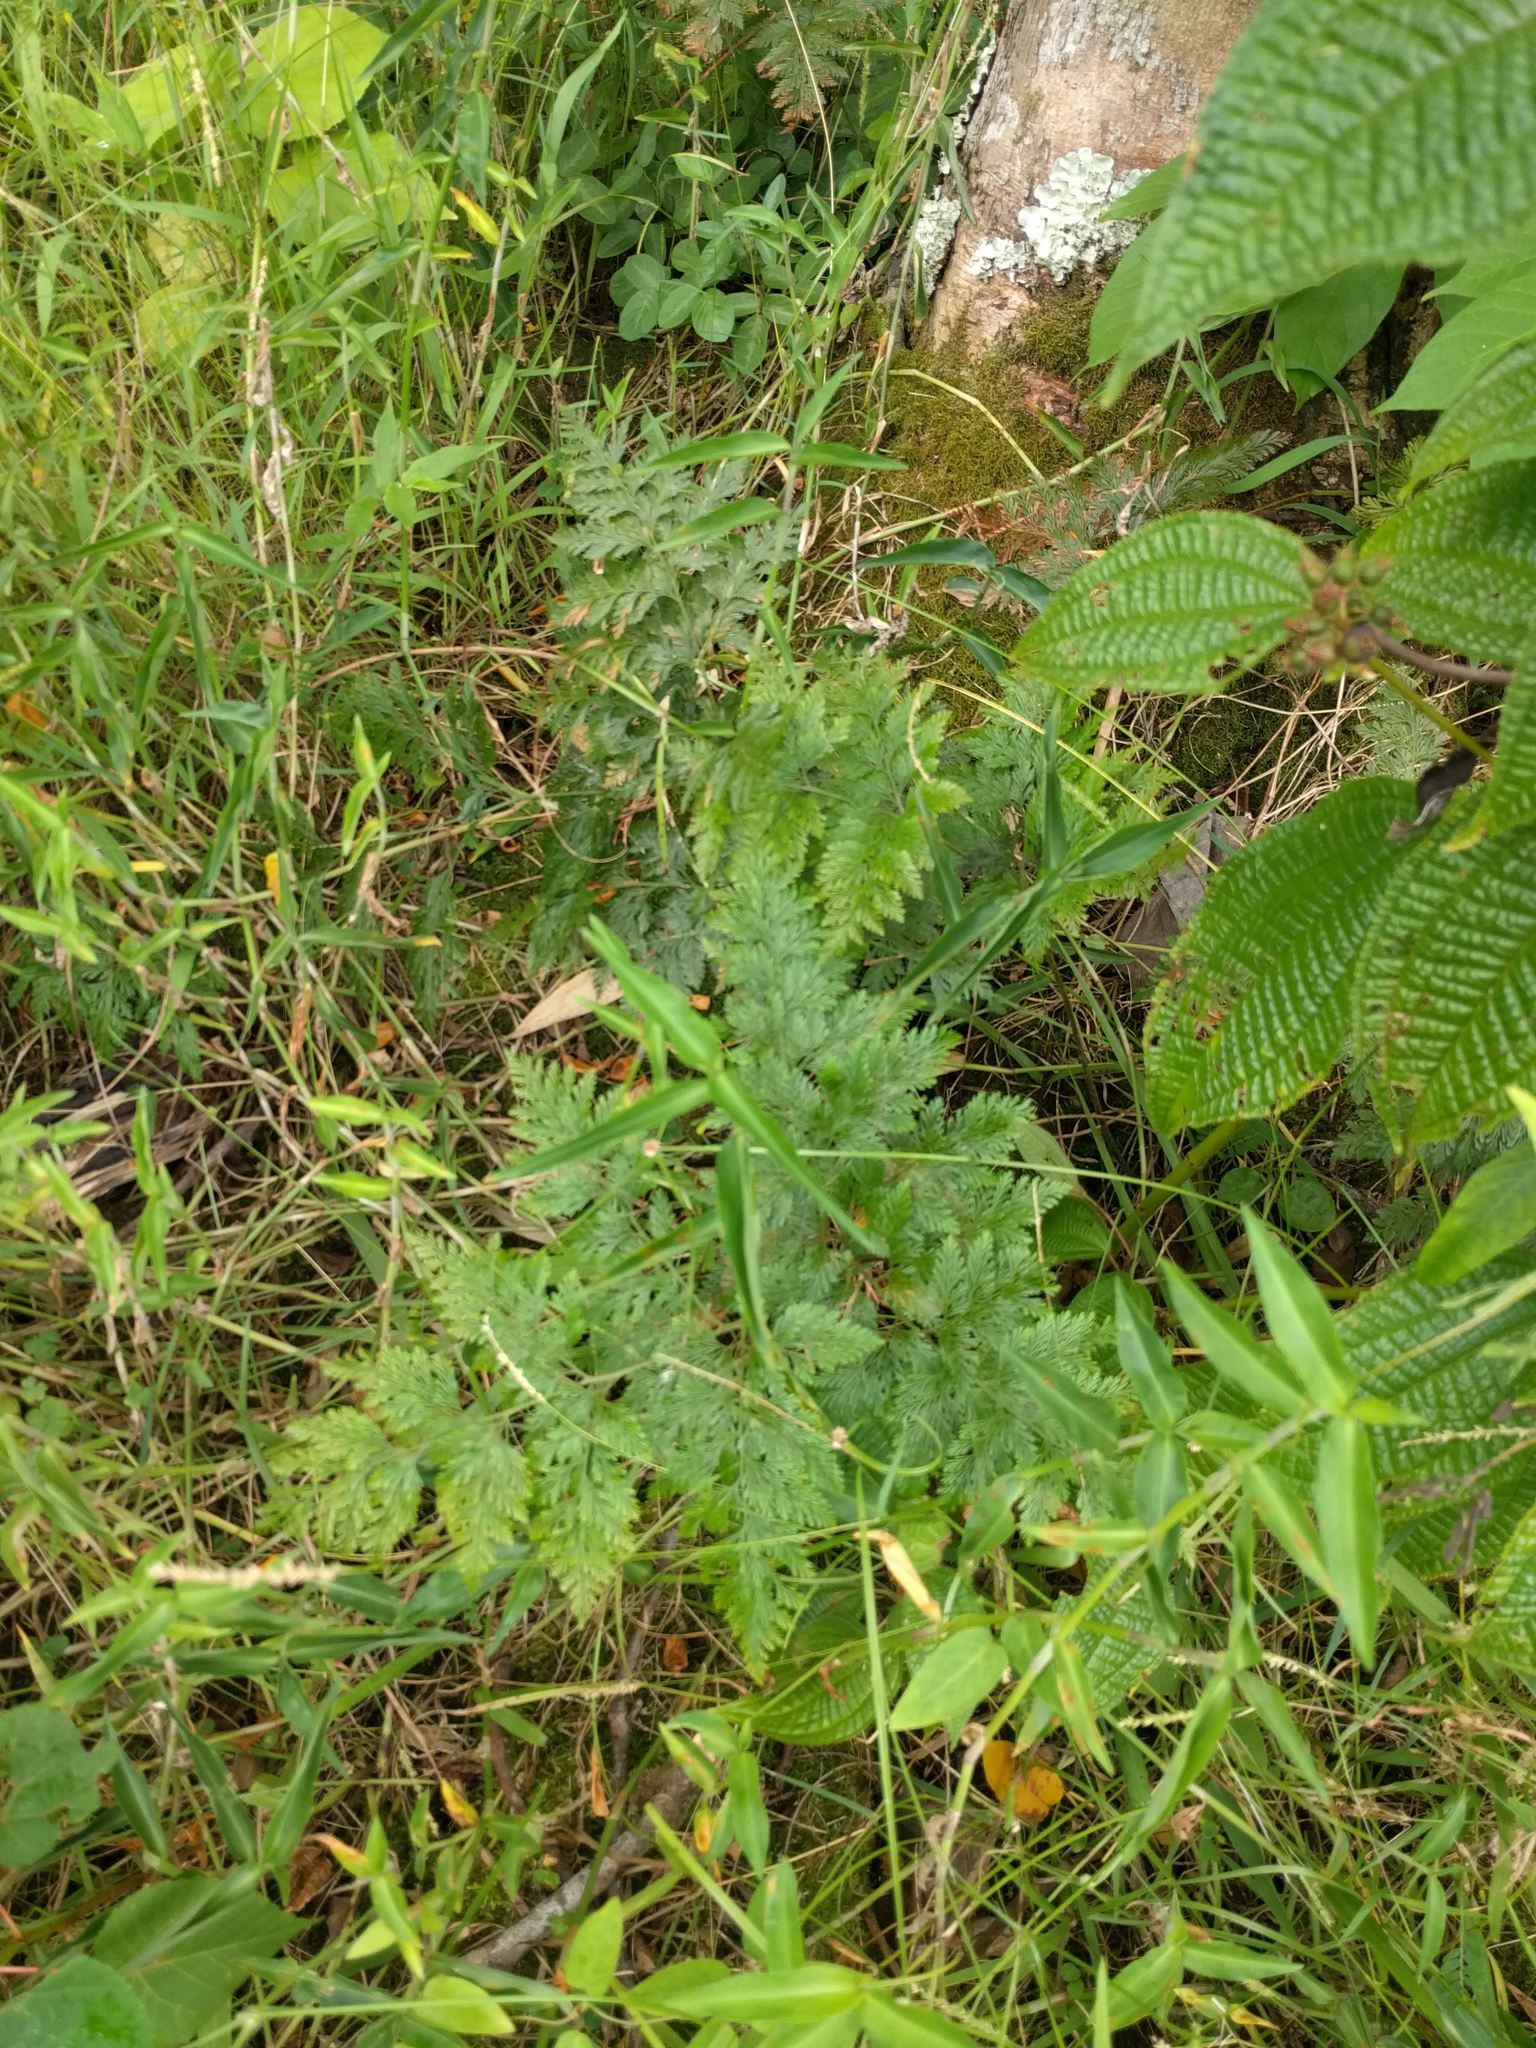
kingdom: Plantae
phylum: Tracheophyta
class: Polypodiopsida
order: Polypodiales
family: Davalliaceae
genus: Davallia
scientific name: Davallia fejeensis
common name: Lacy hare's-foot fern
